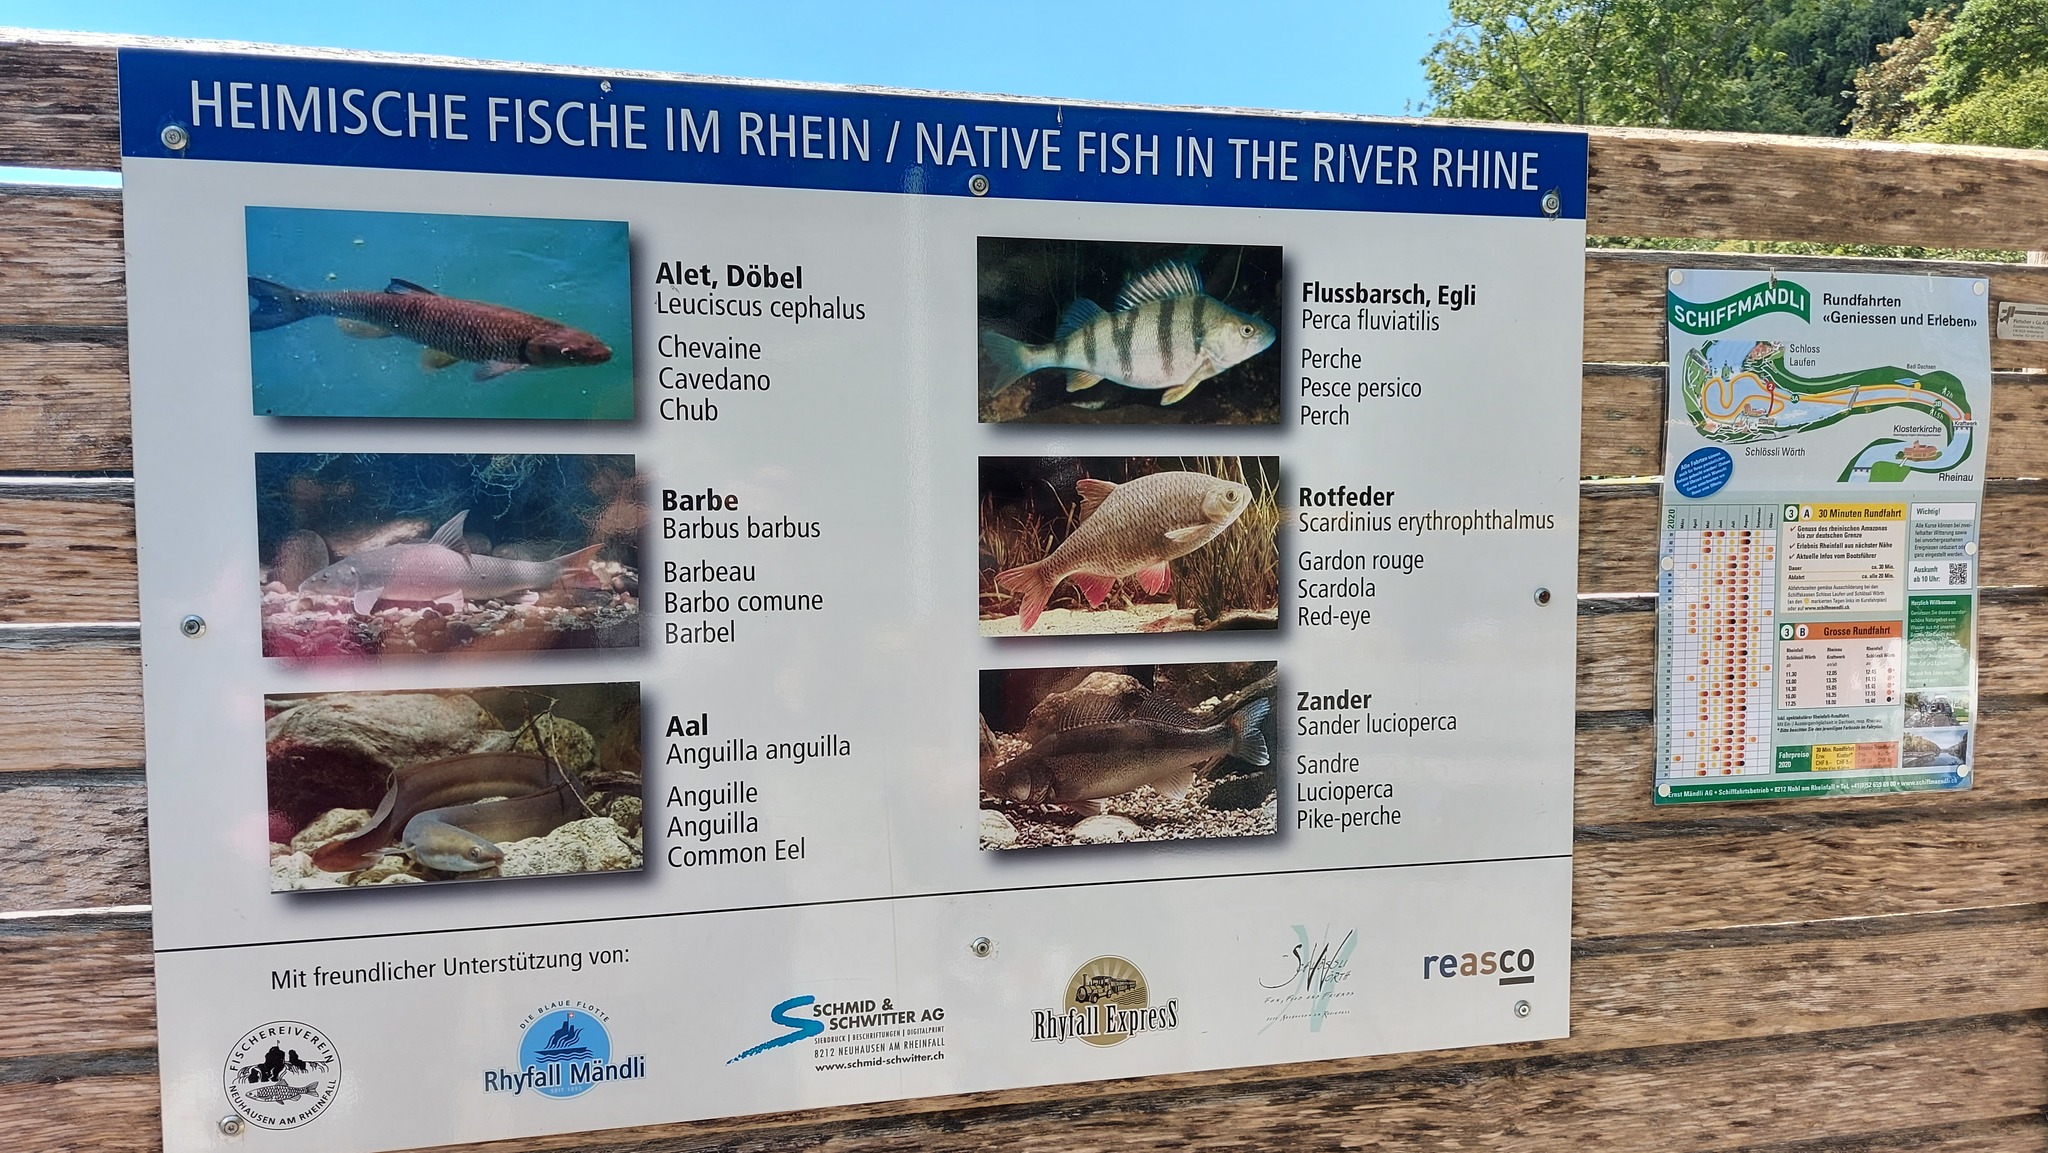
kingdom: Animalia
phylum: Chordata
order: Cypriniformes
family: Cyprinidae
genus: Squalius
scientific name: Squalius cephalus
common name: Chub
